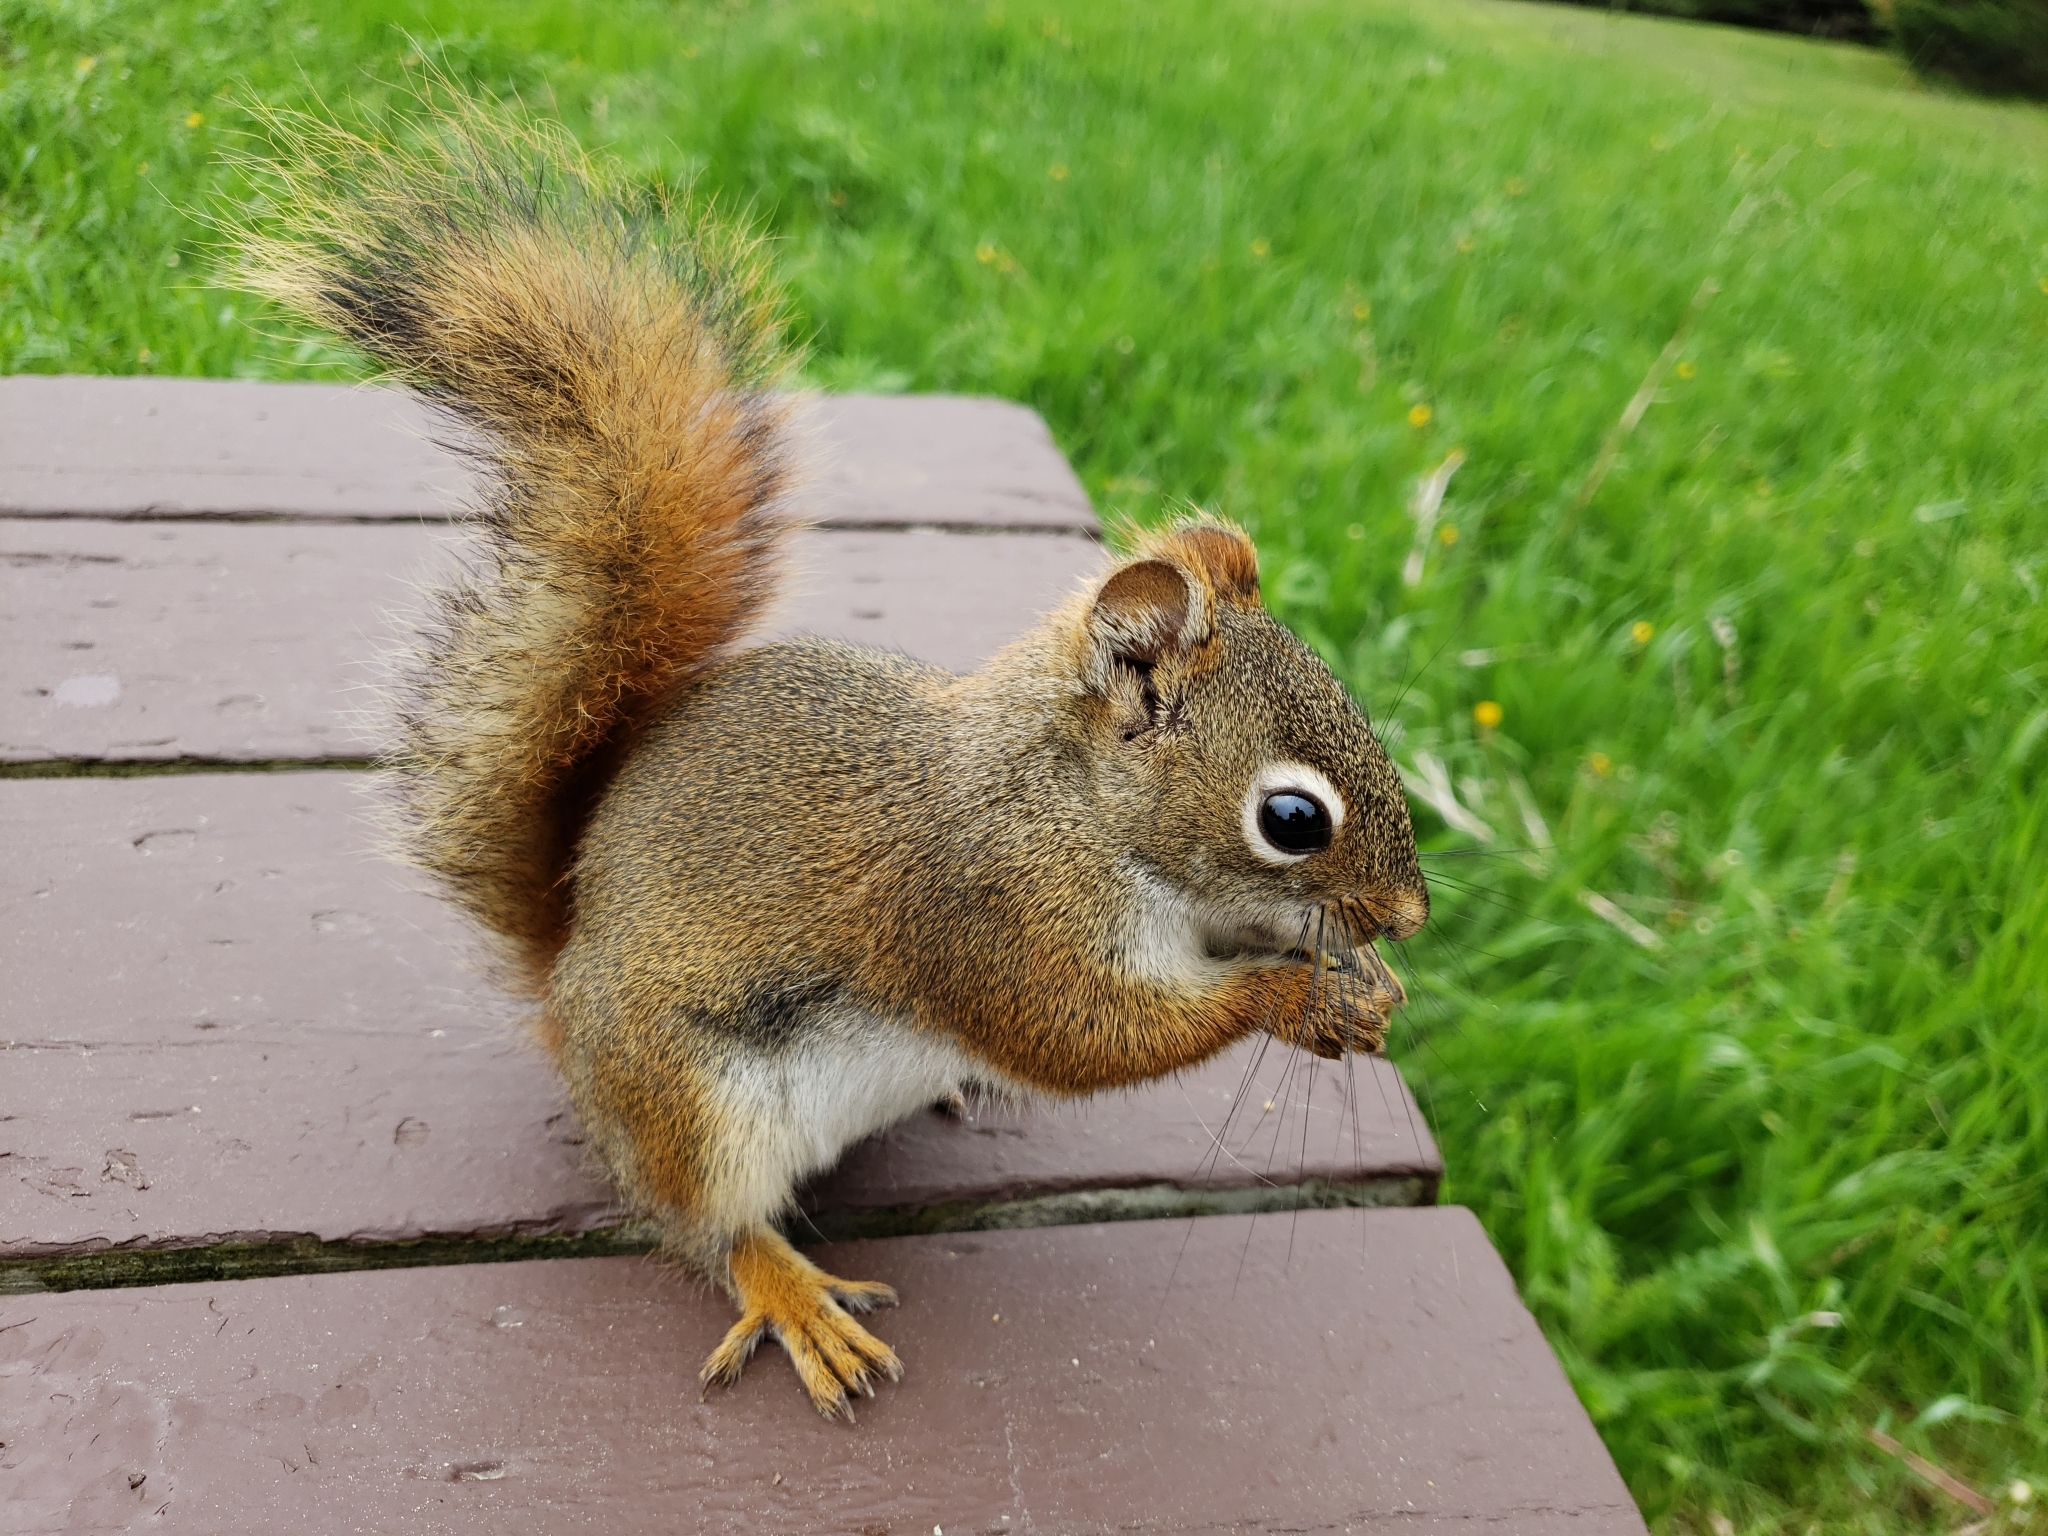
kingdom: Animalia
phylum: Chordata
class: Mammalia
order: Rodentia
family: Sciuridae
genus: Tamiasciurus
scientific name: Tamiasciurus hudsonicus
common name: Red squirrel
